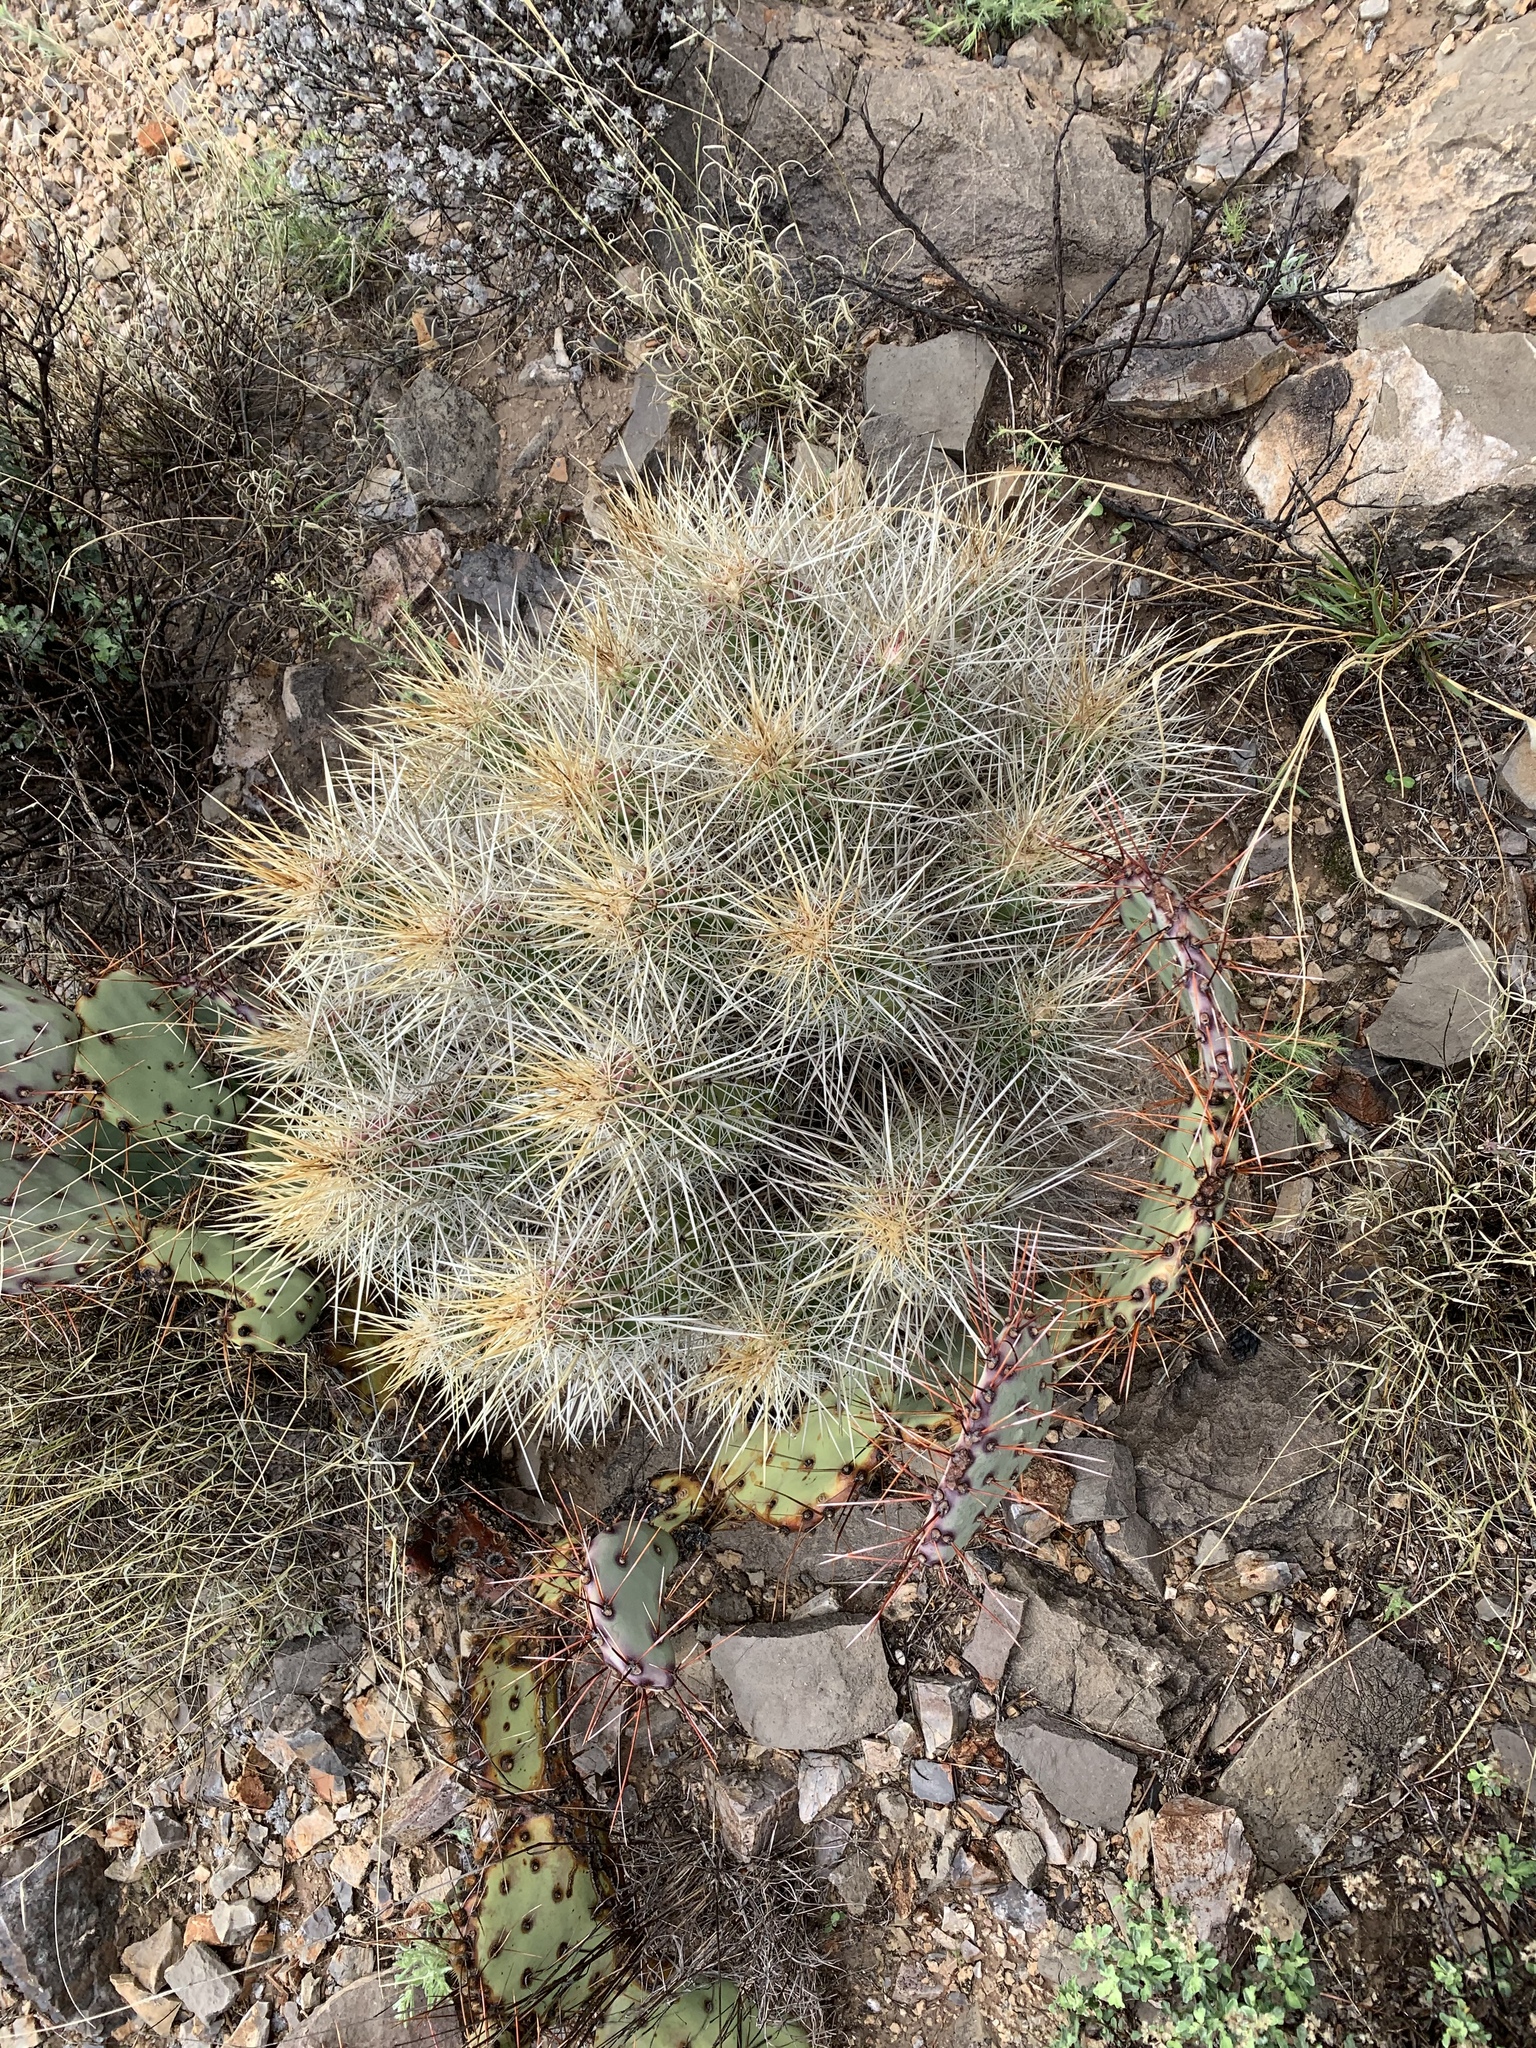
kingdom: Plantae
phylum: Tracheophyta
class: Magnoliopsida
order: Caryophyllales
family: Cactaceae
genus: Echinocereus
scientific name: Echinocereus stramineus
